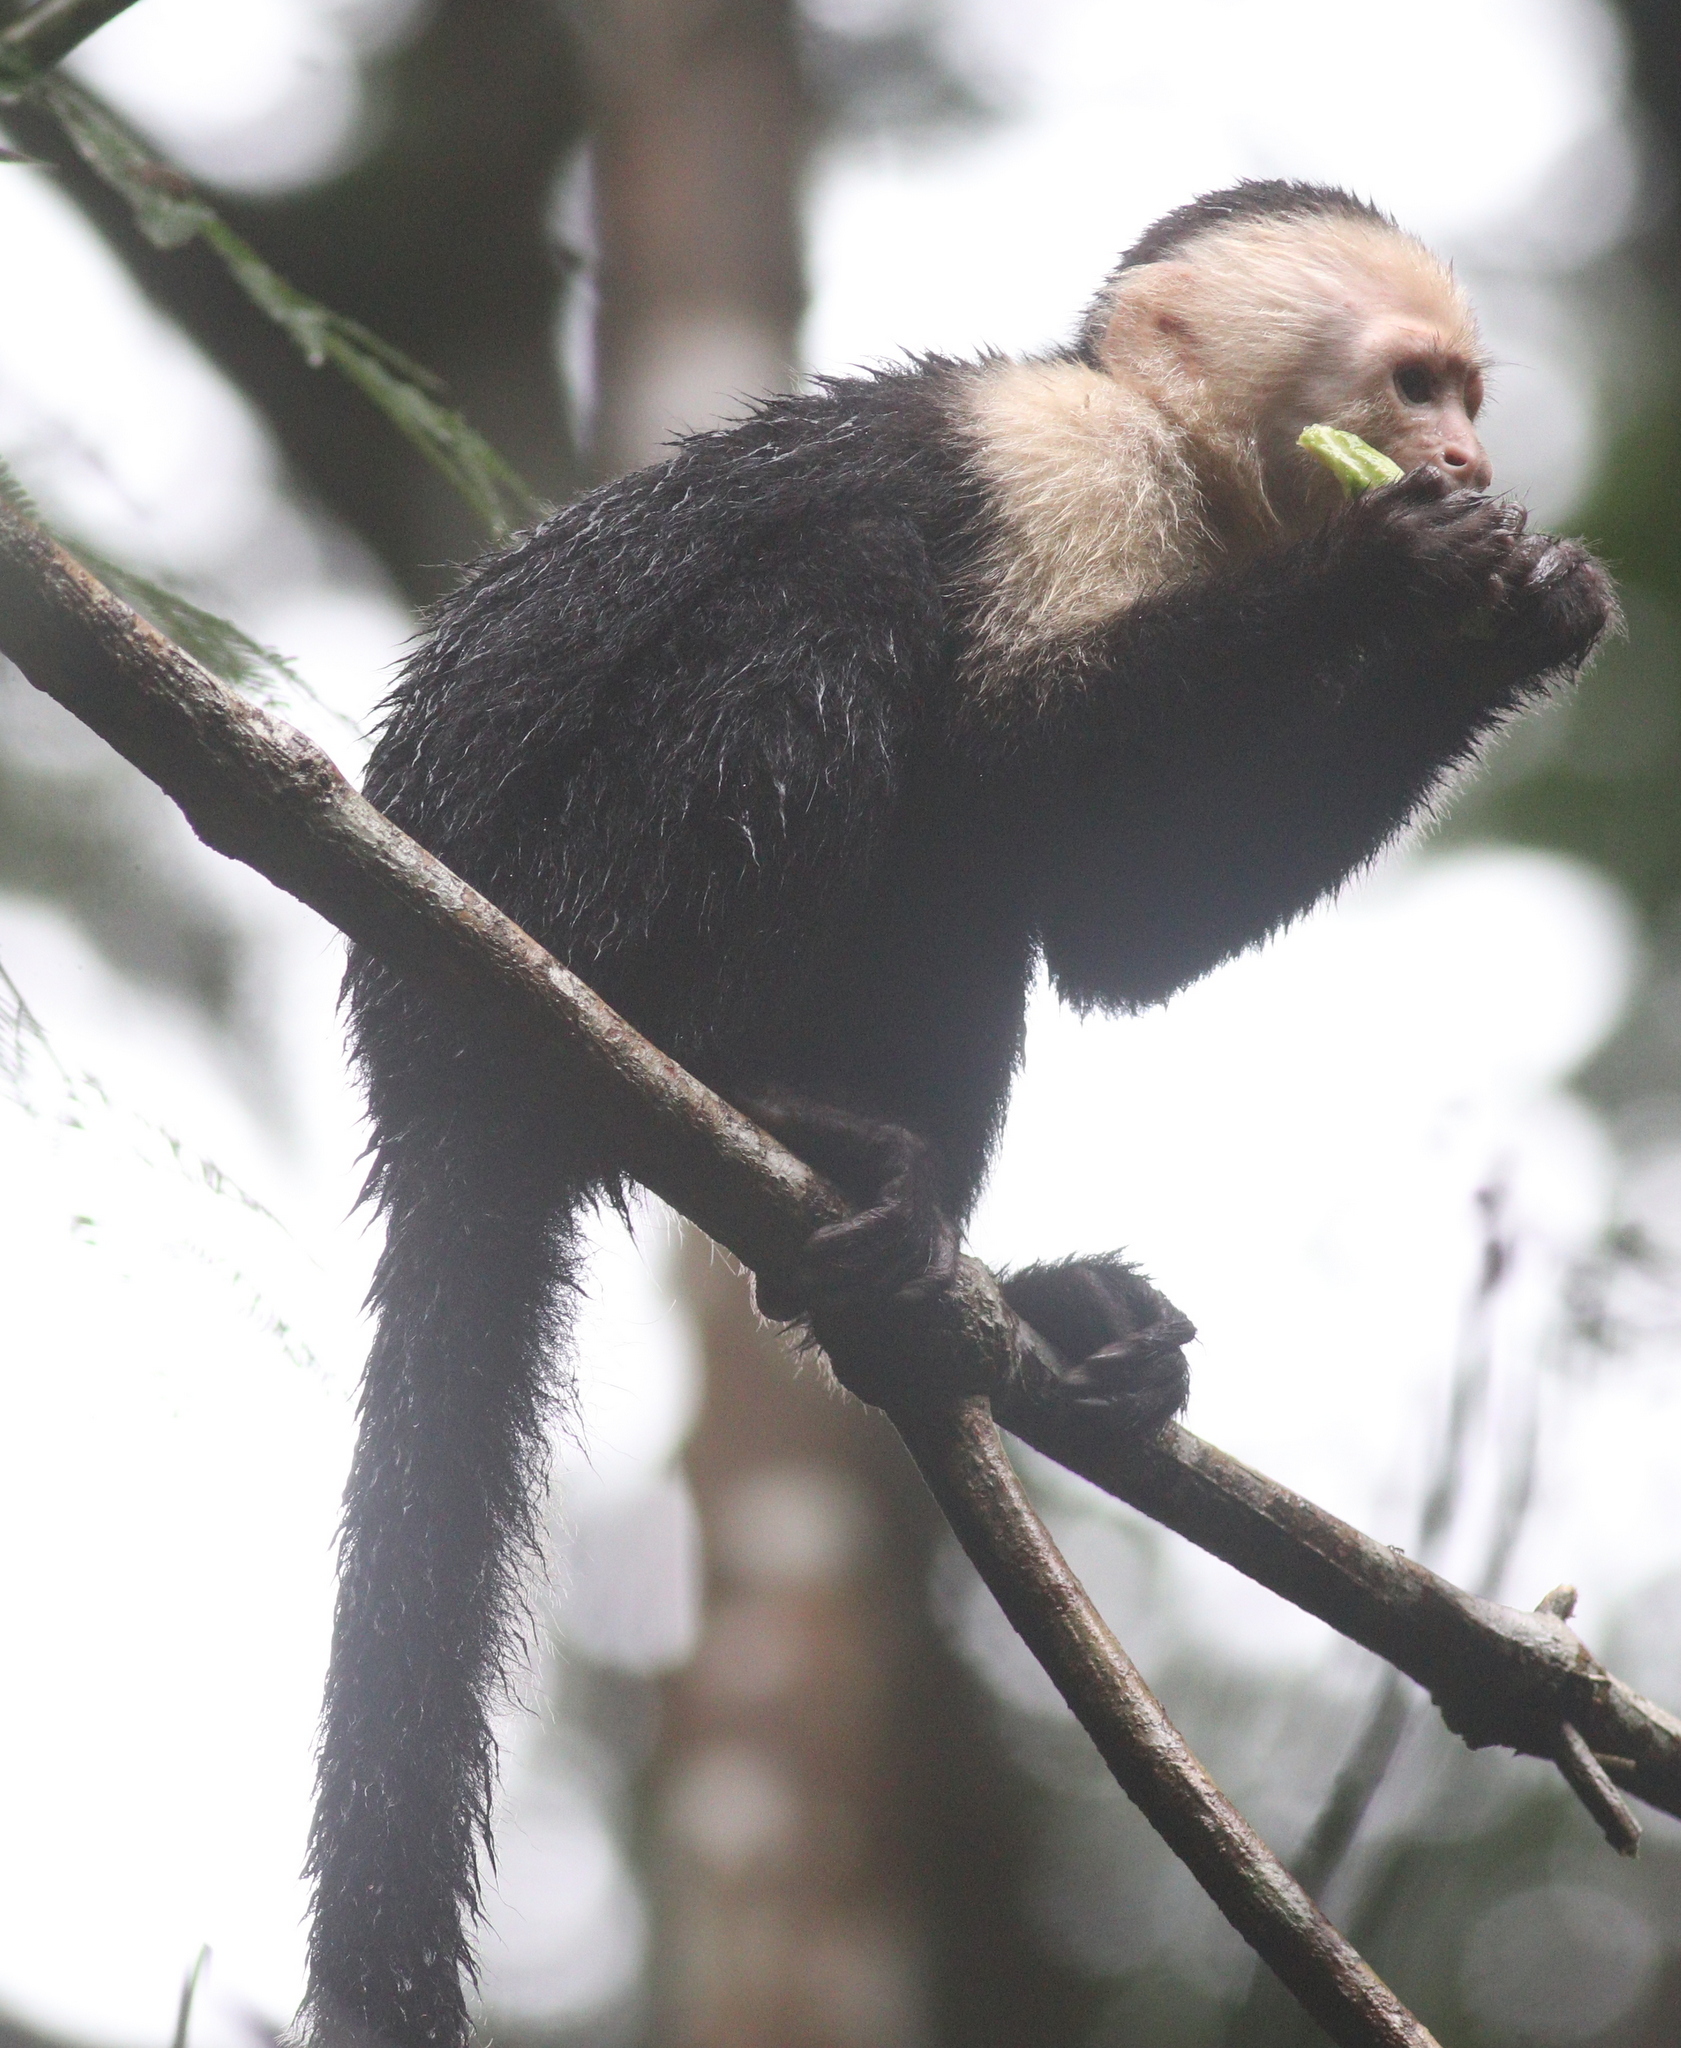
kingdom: Animalia
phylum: Chordata
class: Mammalia
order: Primates
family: Cebidae
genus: Cebus
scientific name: Cebus imitator
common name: Panamanian white-faced capuchin
